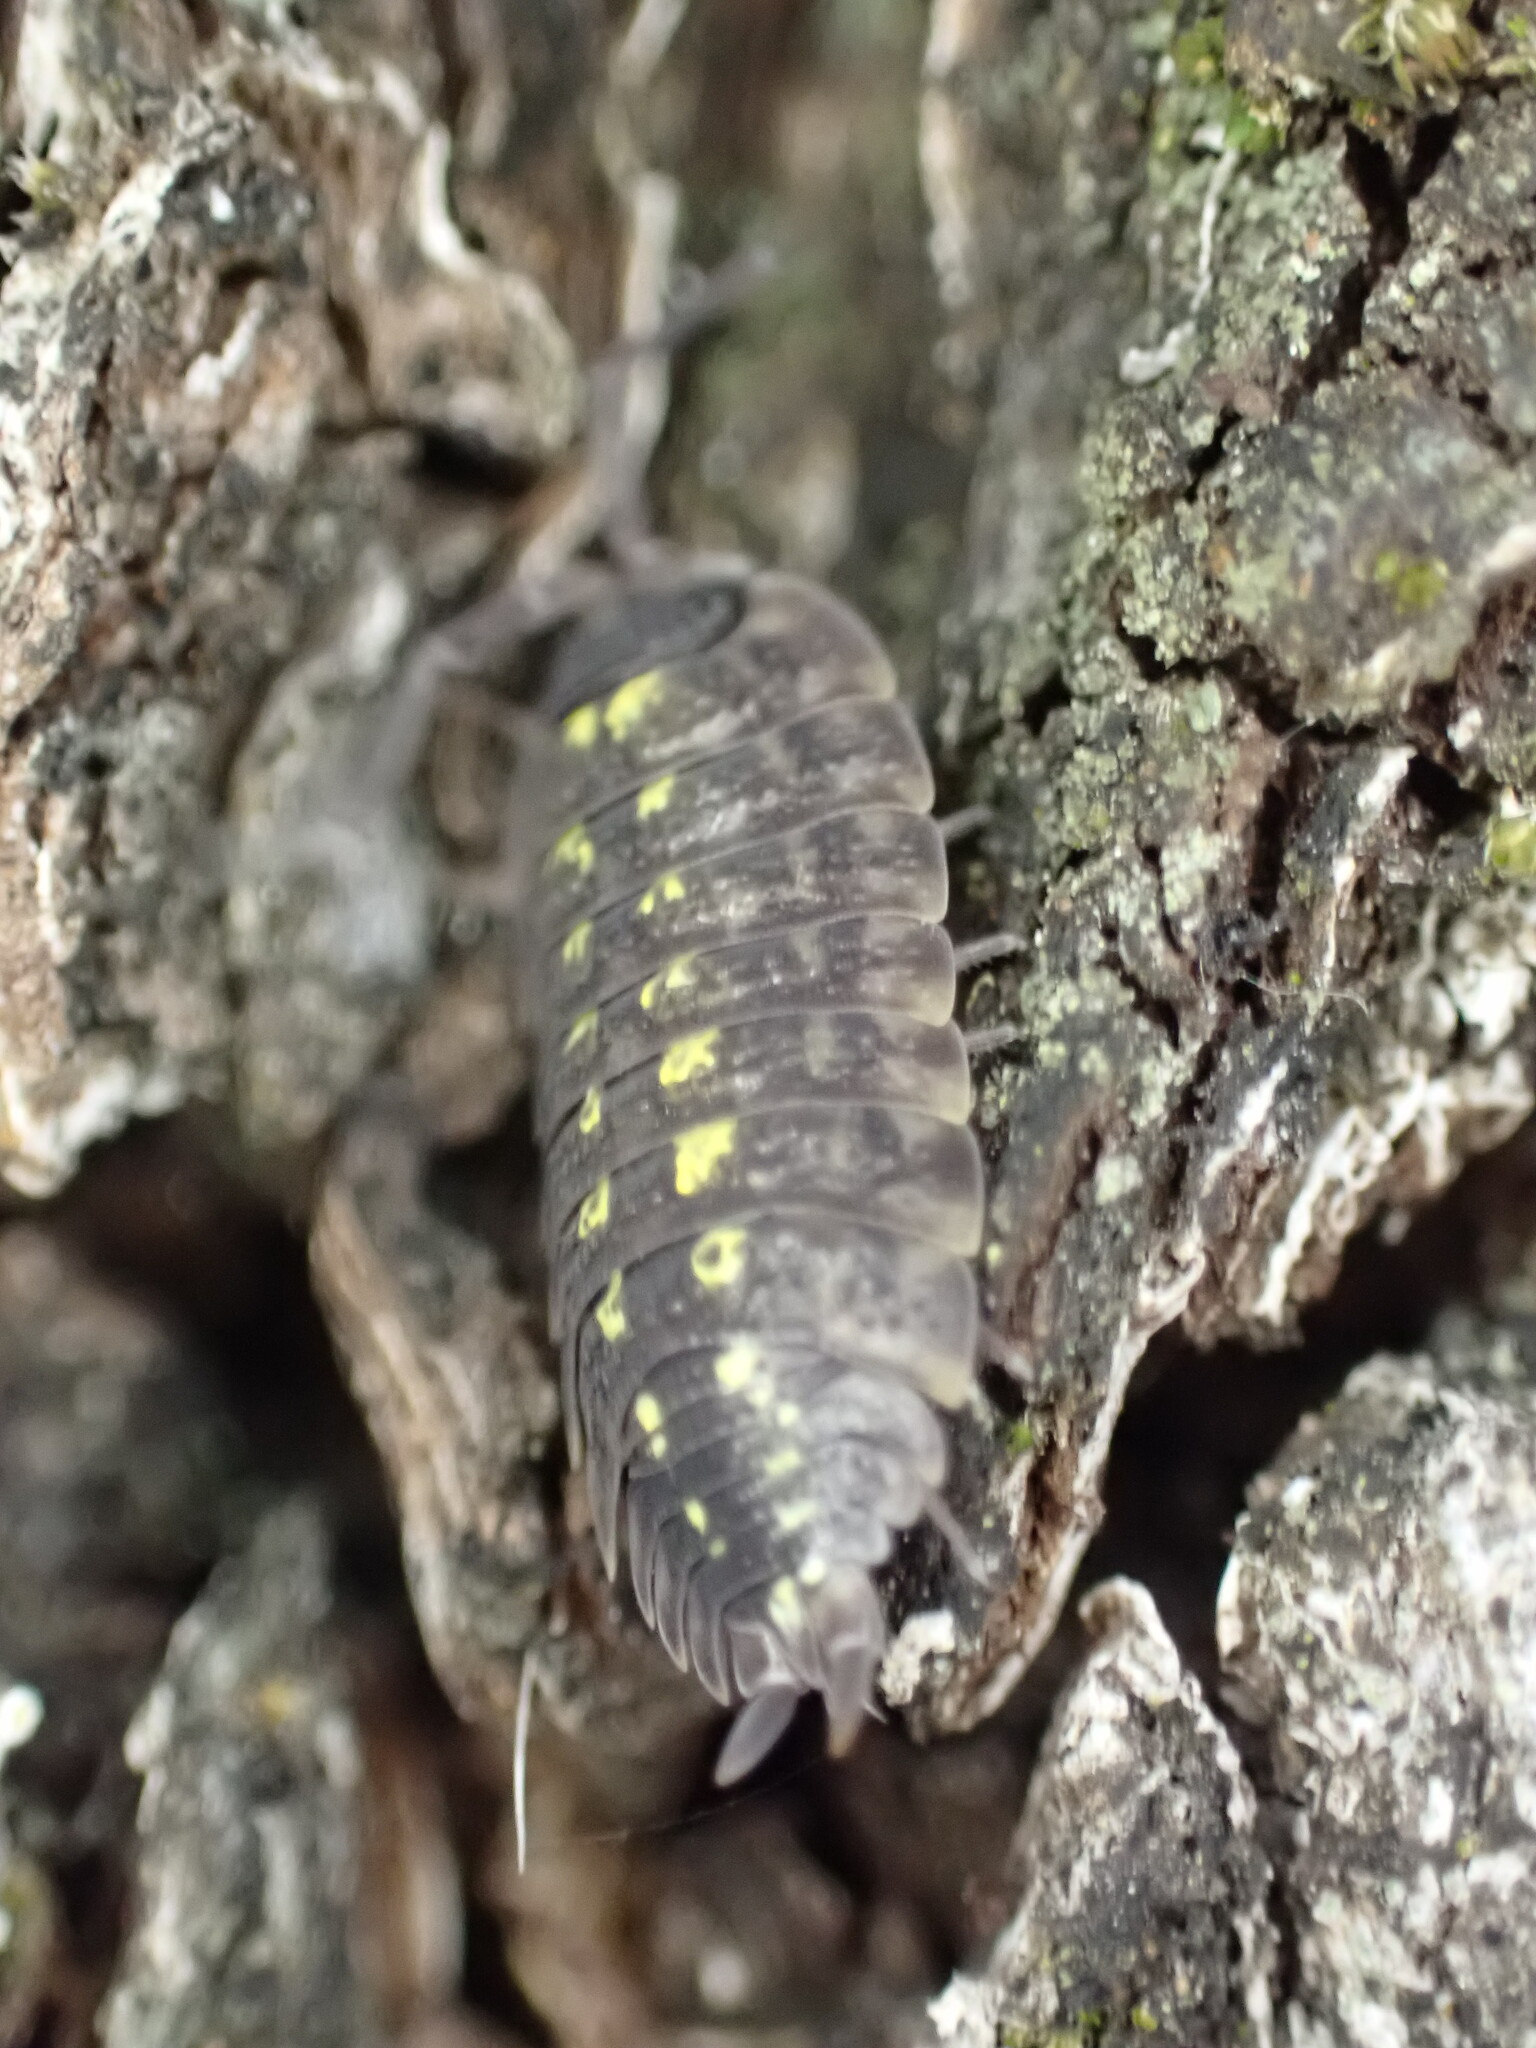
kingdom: Animalia
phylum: Arthropoda
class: Malacostraca
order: Isopoda
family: Porcellionidae
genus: Porcellio
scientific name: Porcellio spinicornis
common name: Painted woodlouse
